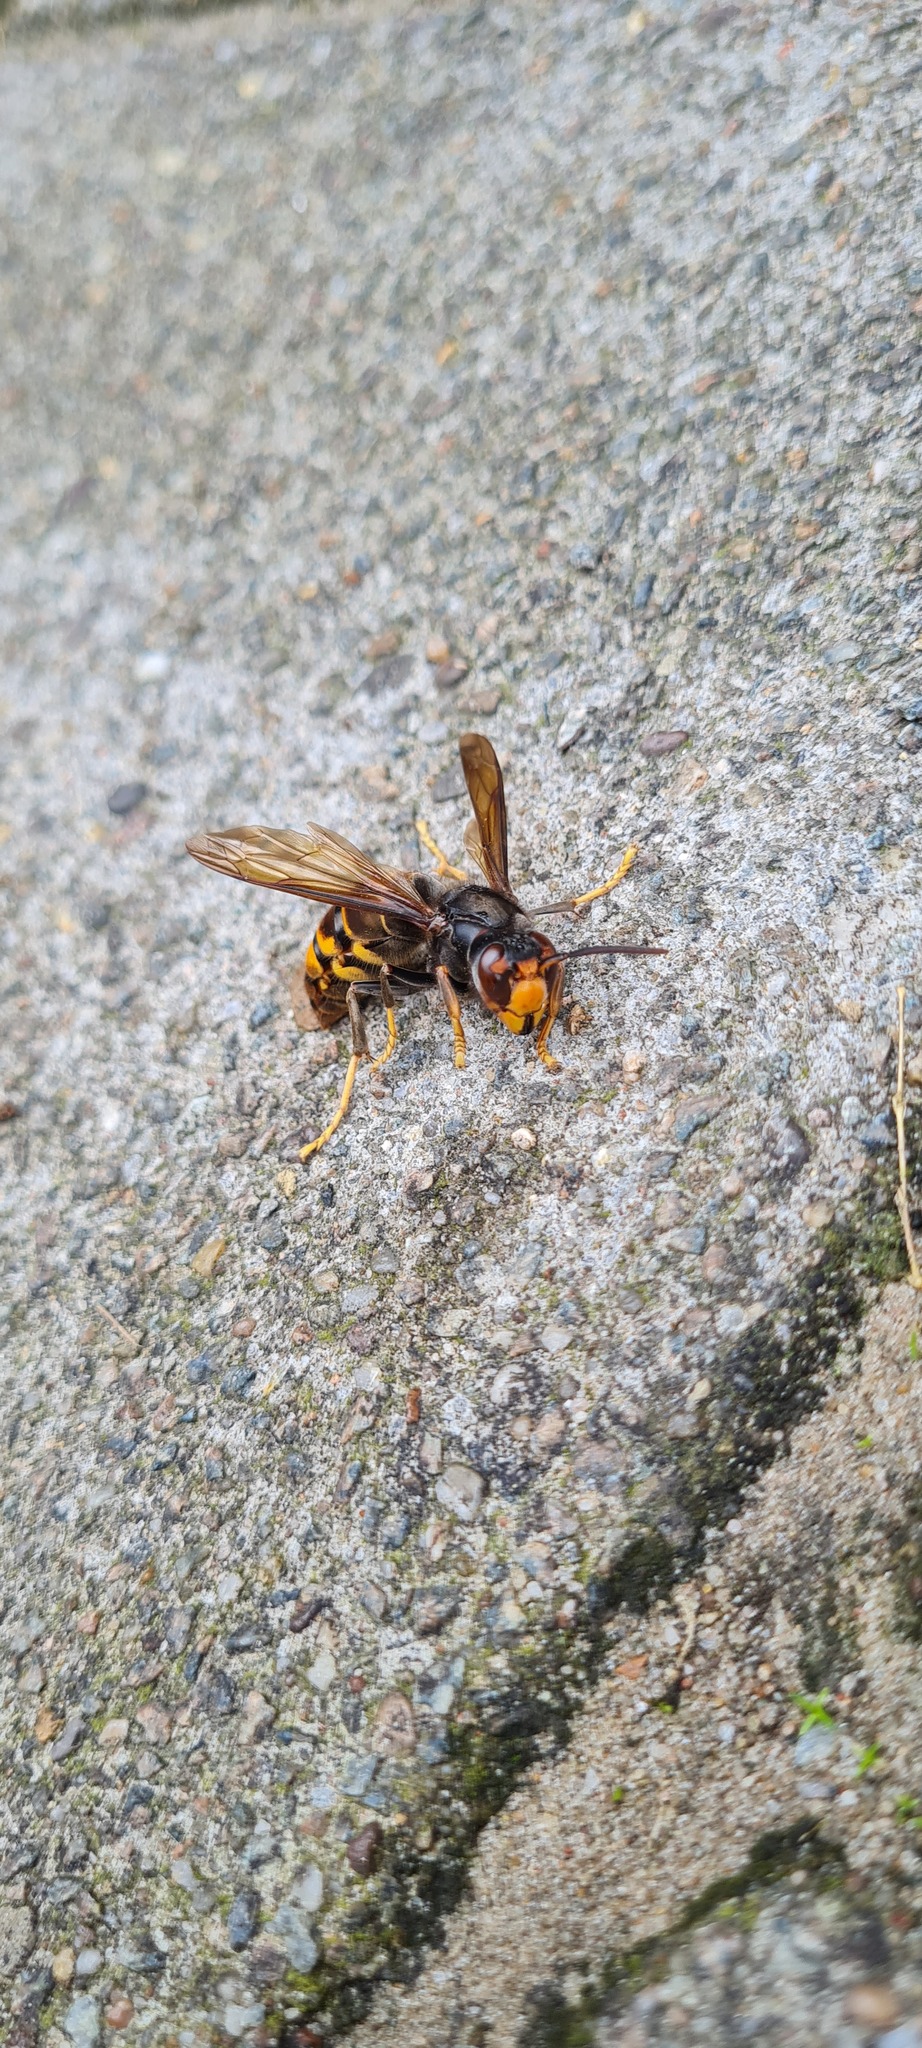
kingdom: Animalia
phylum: Arthropoda
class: Insecta
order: Hymenoptera
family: Vespidae
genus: Vespa
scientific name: Vespa velutina
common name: Asian hornet
